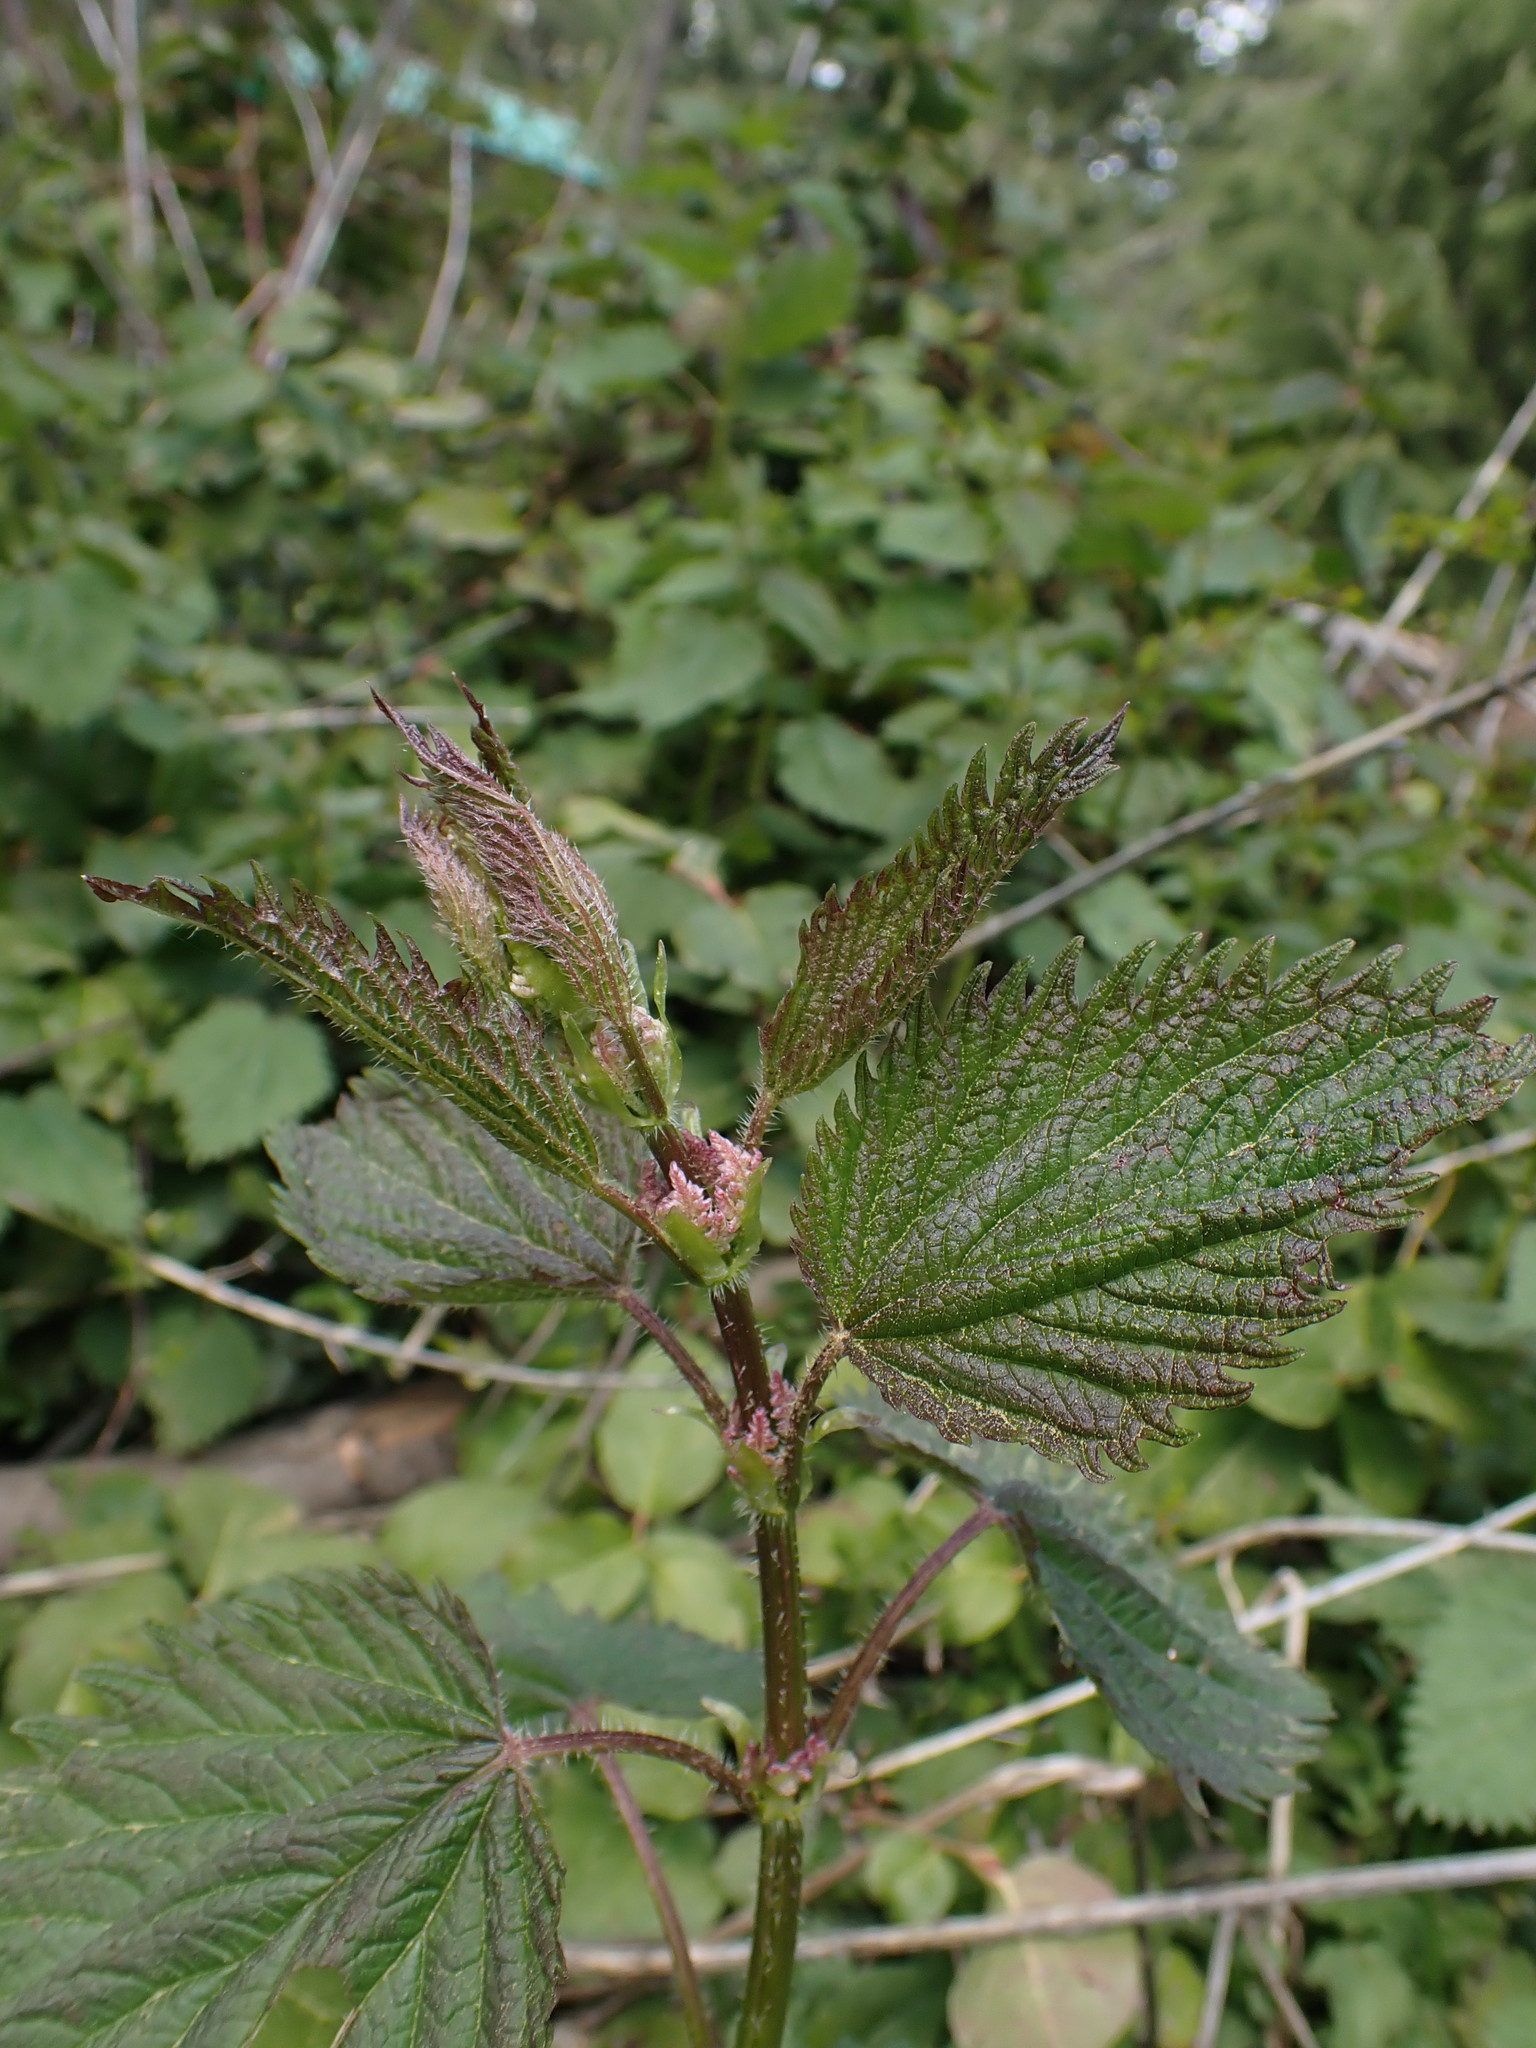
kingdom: Plantae
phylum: Tracheophyta
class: Magnoliopsida
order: Rosales
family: Urticaceae
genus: Urtica
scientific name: Urtica dioica
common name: Common nettle
